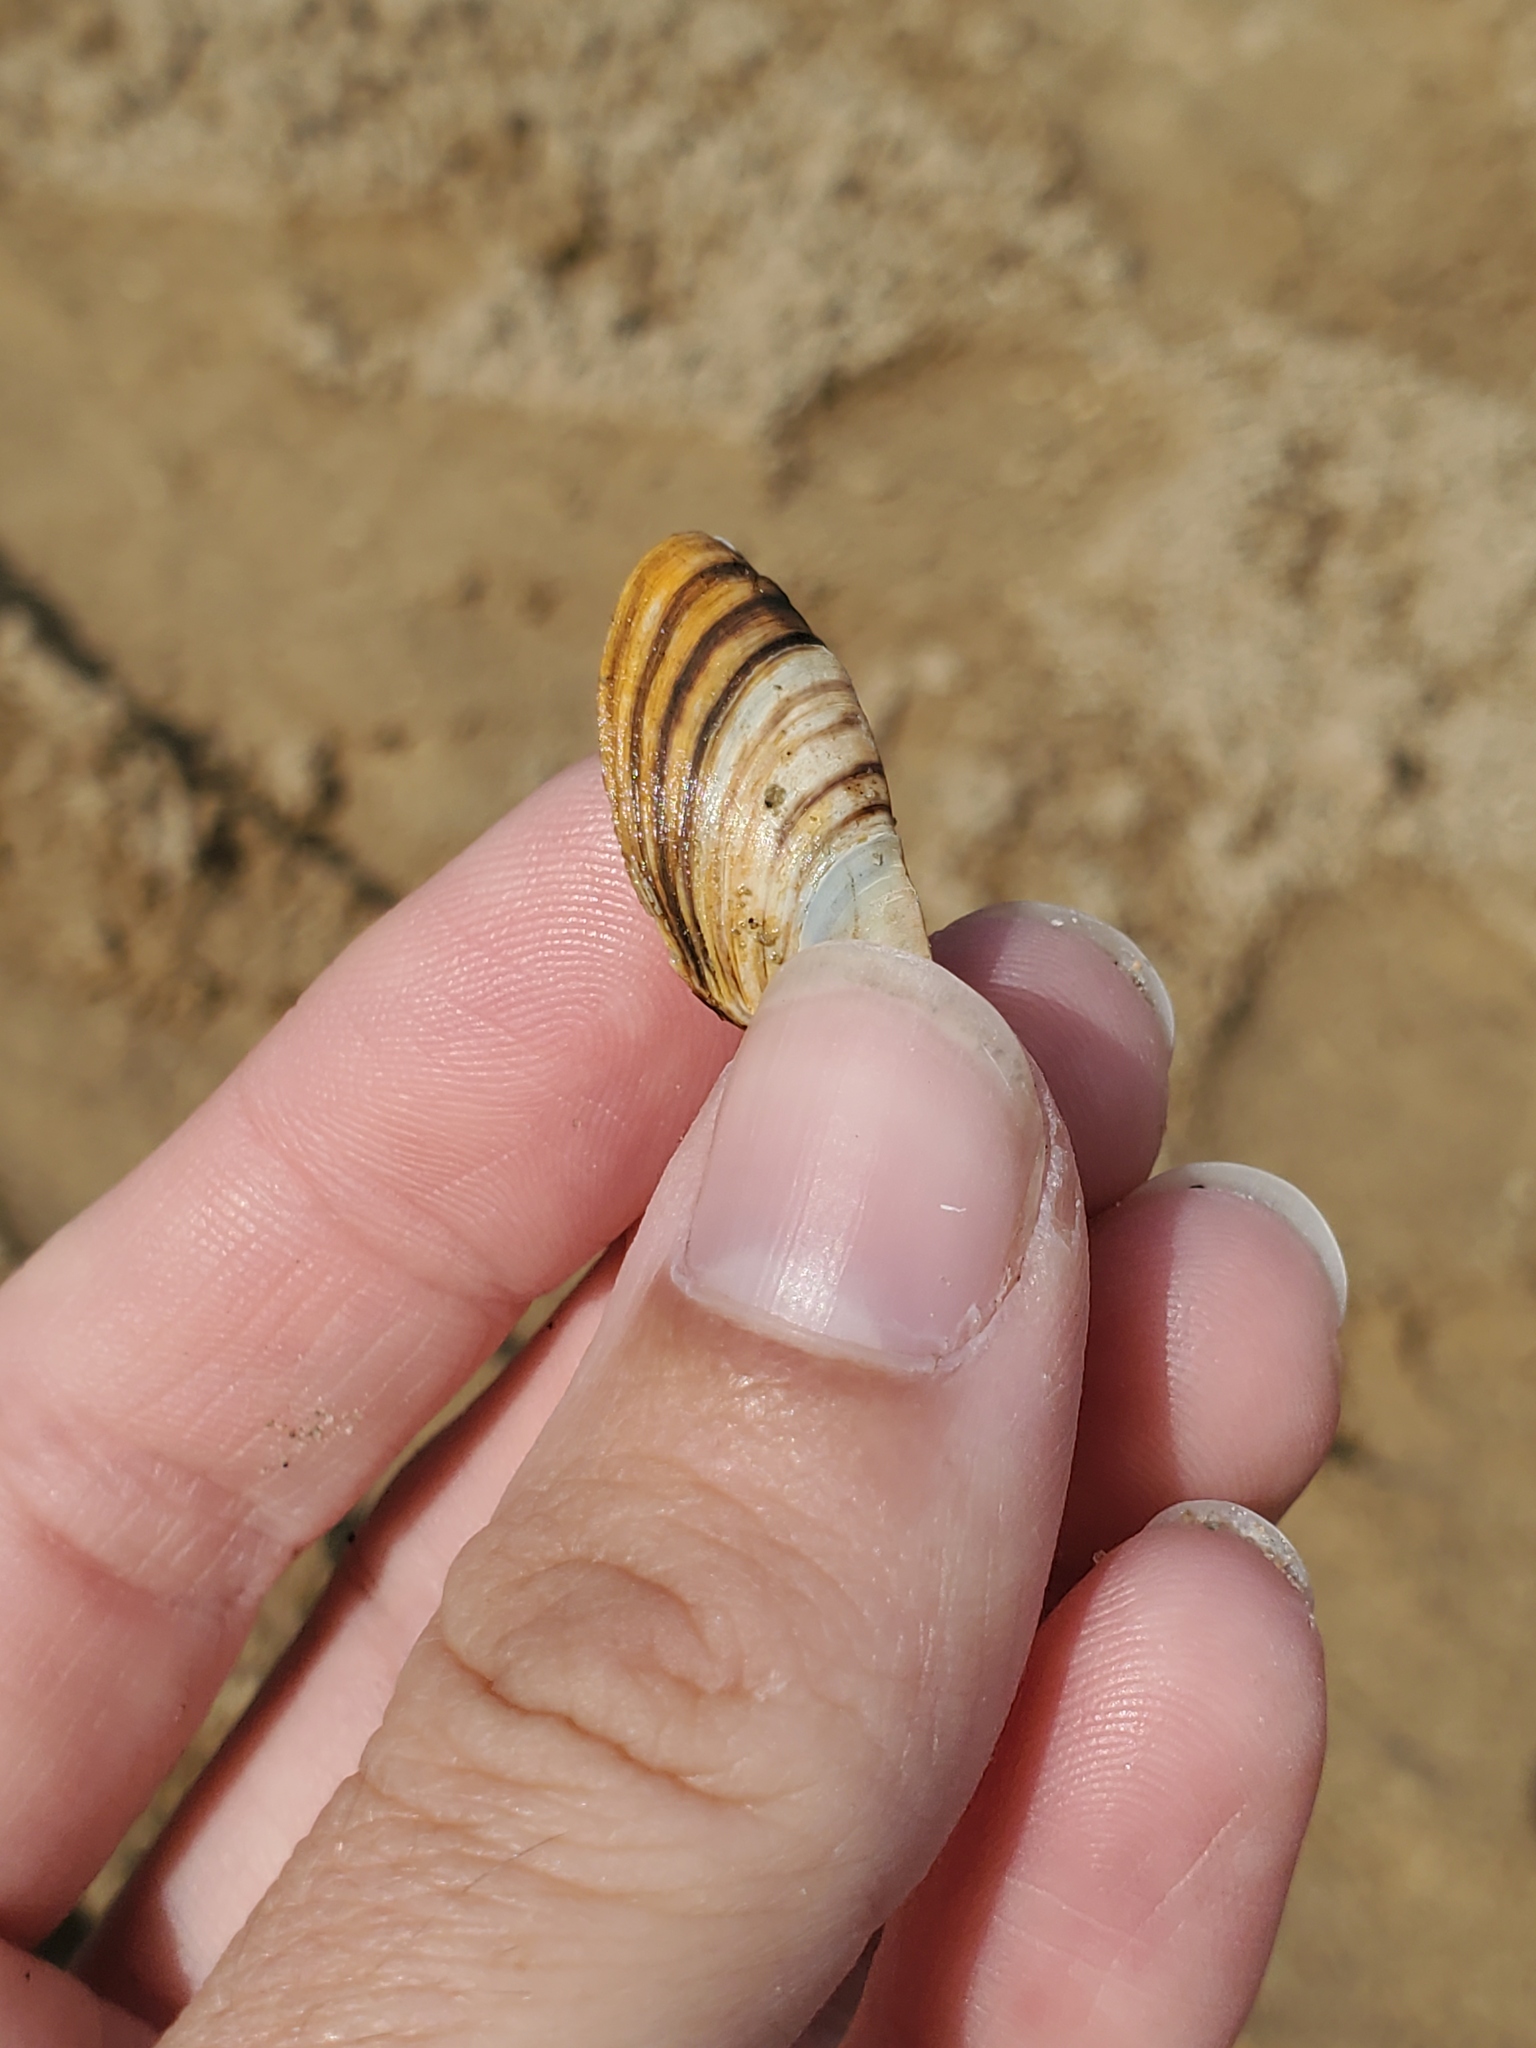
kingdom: Animalia
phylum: Mollusca
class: Bivalvia
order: Myida
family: Dreissenidae
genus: Dreissena
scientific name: Dreissena polymorpha
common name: Zebra mussel
